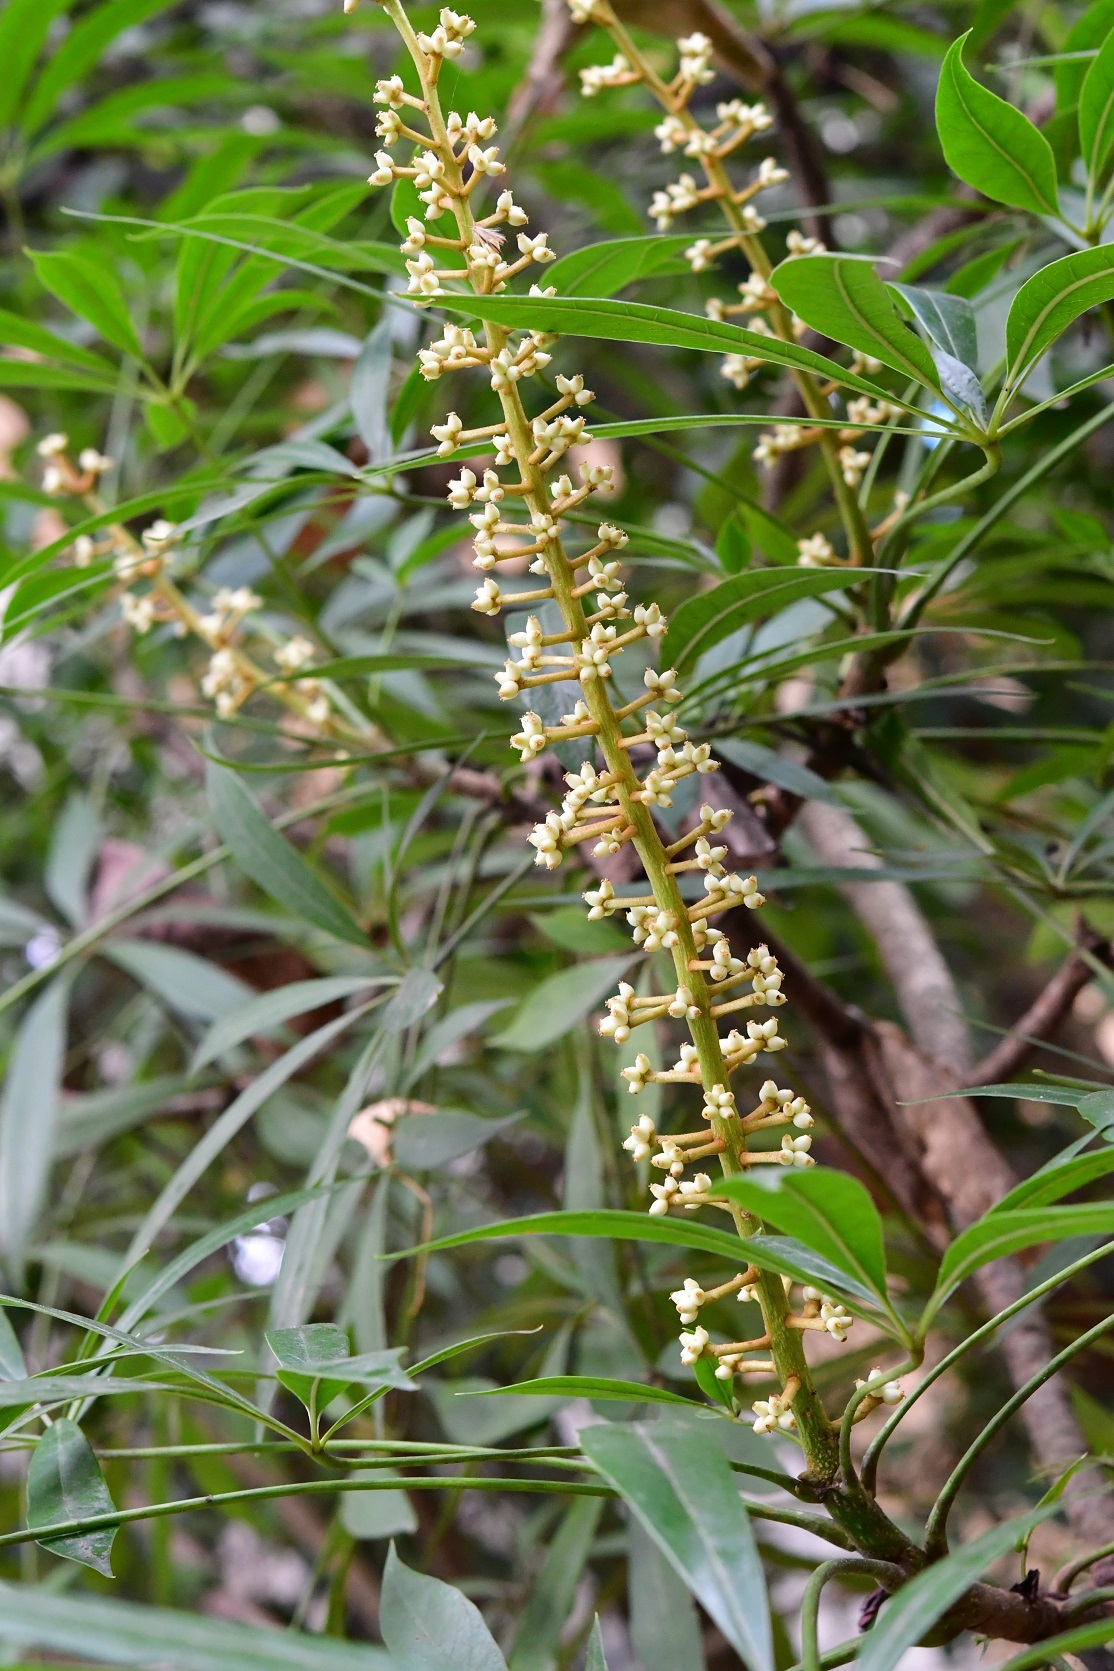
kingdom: Plantae
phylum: Tracheophyta
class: Magnoliopsida
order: Apiales
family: Araliaceae
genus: Oreopanax
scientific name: Oreopanax xalapensis
